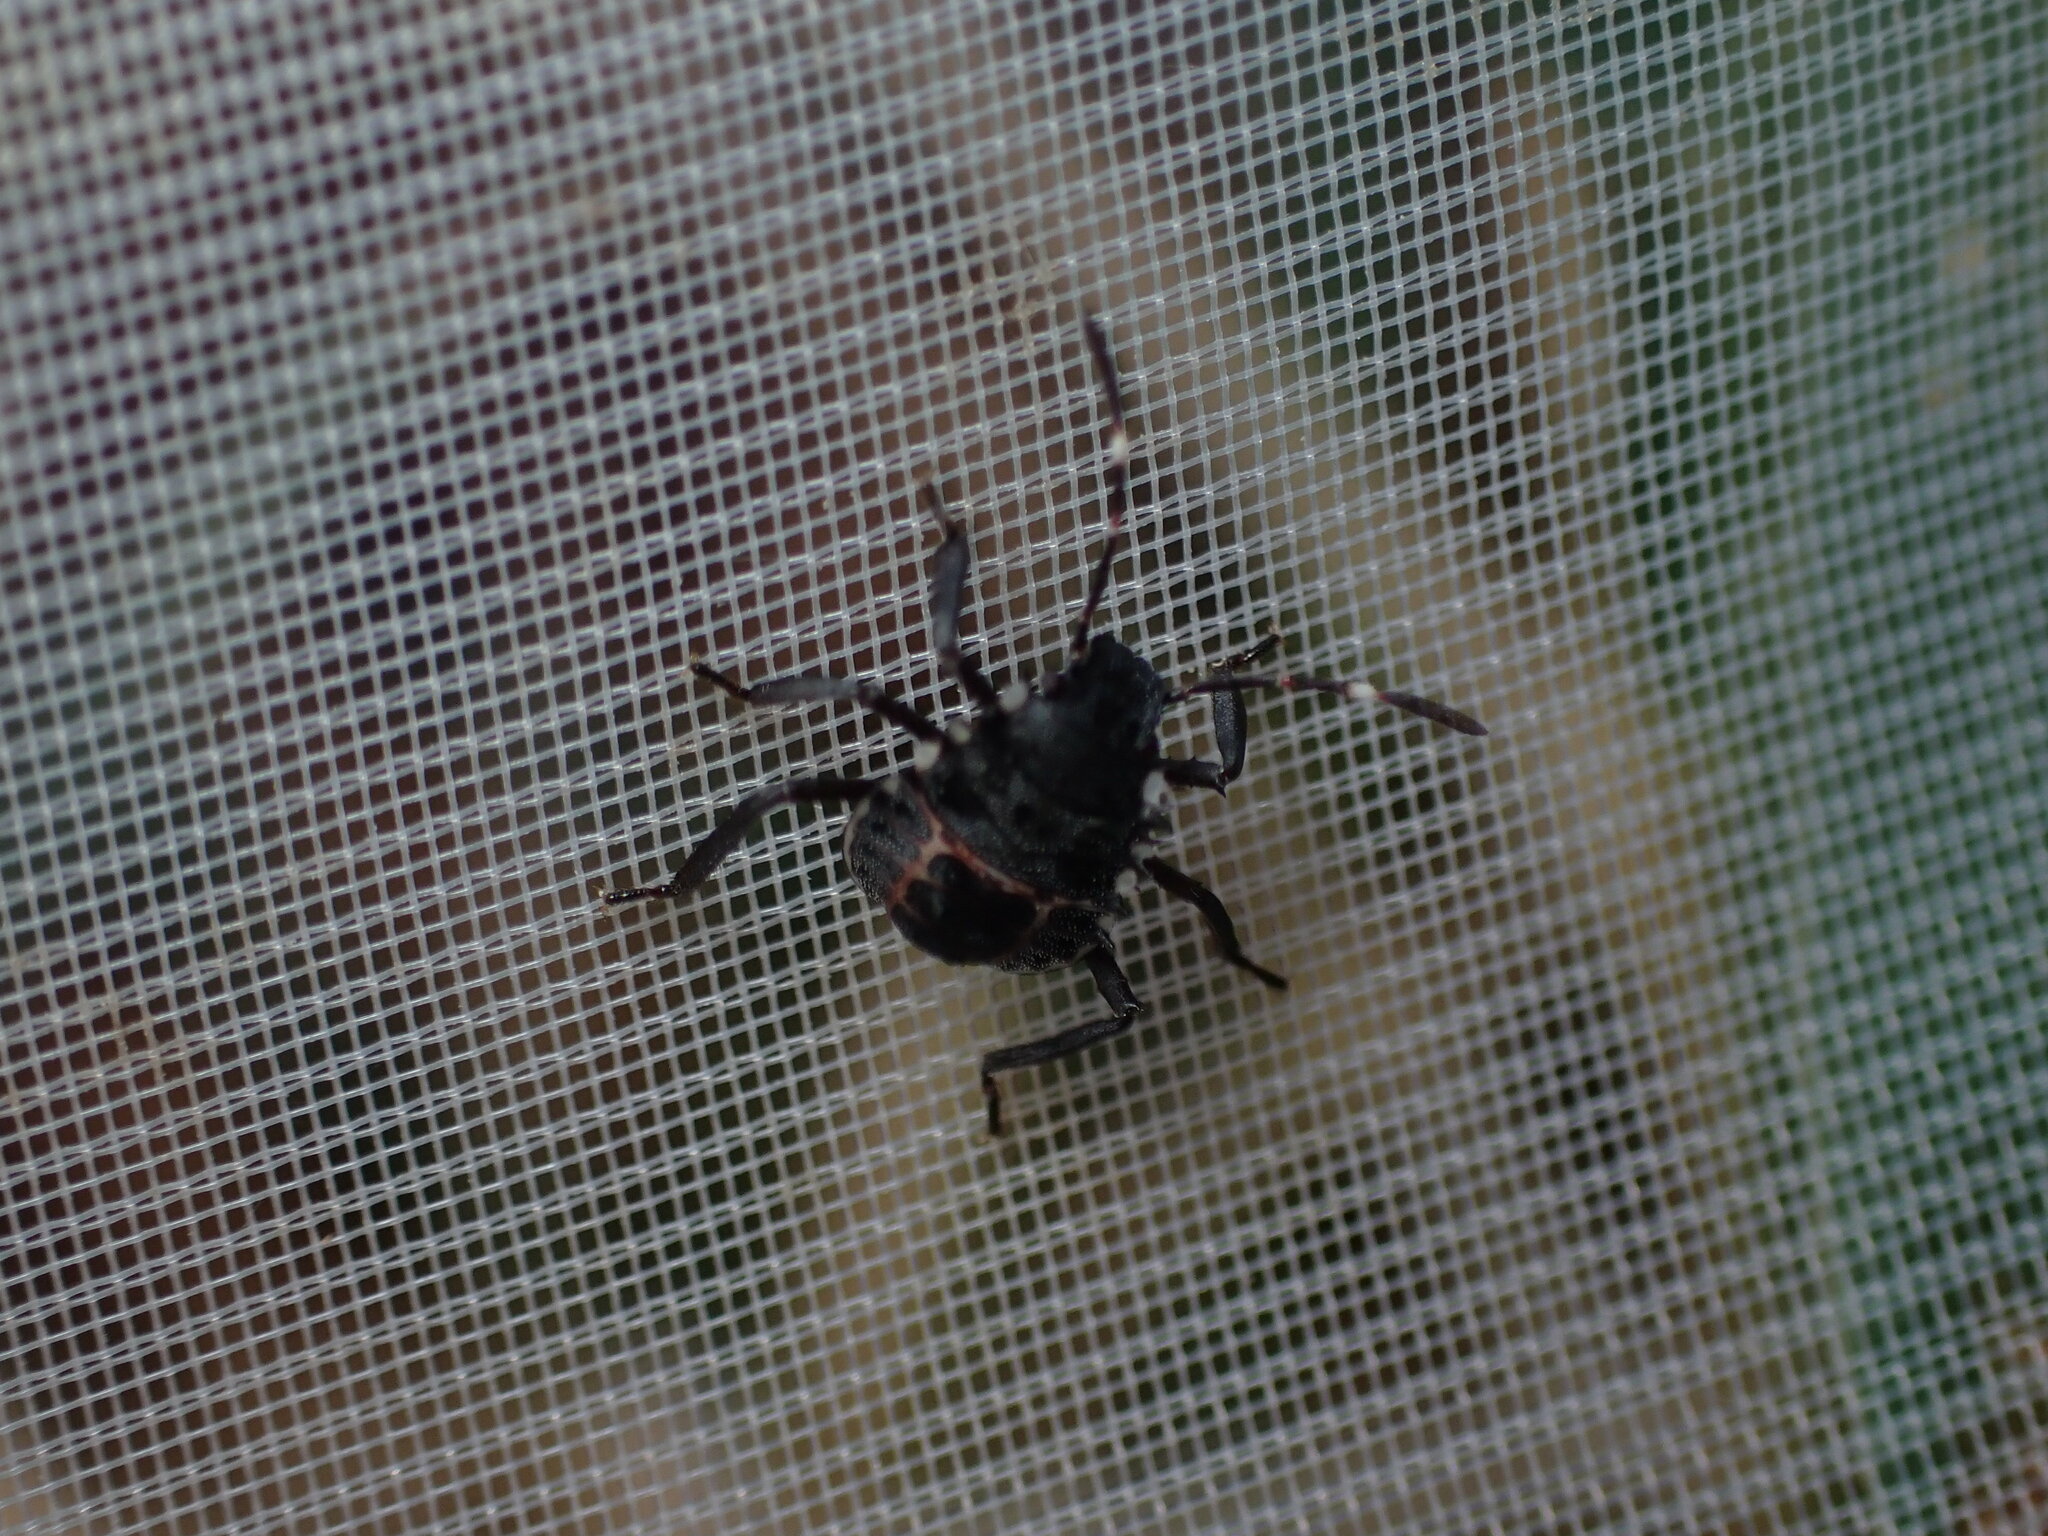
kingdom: Animalia
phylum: Arthropoda
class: Insecta
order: Hemiptera
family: Pentatomidae
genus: Halyomorpha
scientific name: Halyomorpha halys
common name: Brown marmorated stink bug
